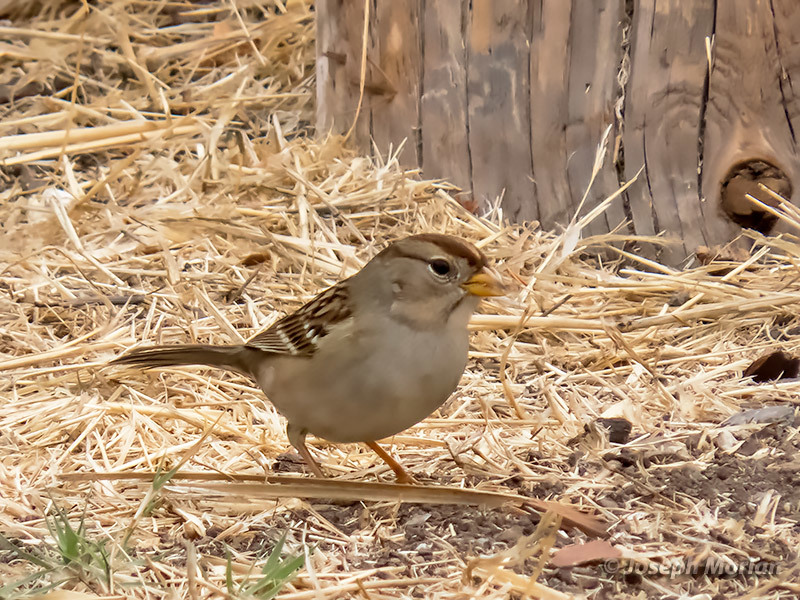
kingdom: Animalia
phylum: Chordata
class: Aves
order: Passeriformes
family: Passerellidae
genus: Zonotrichia
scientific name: Zonotrichia leucophrys
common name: White-crowned sparrow
